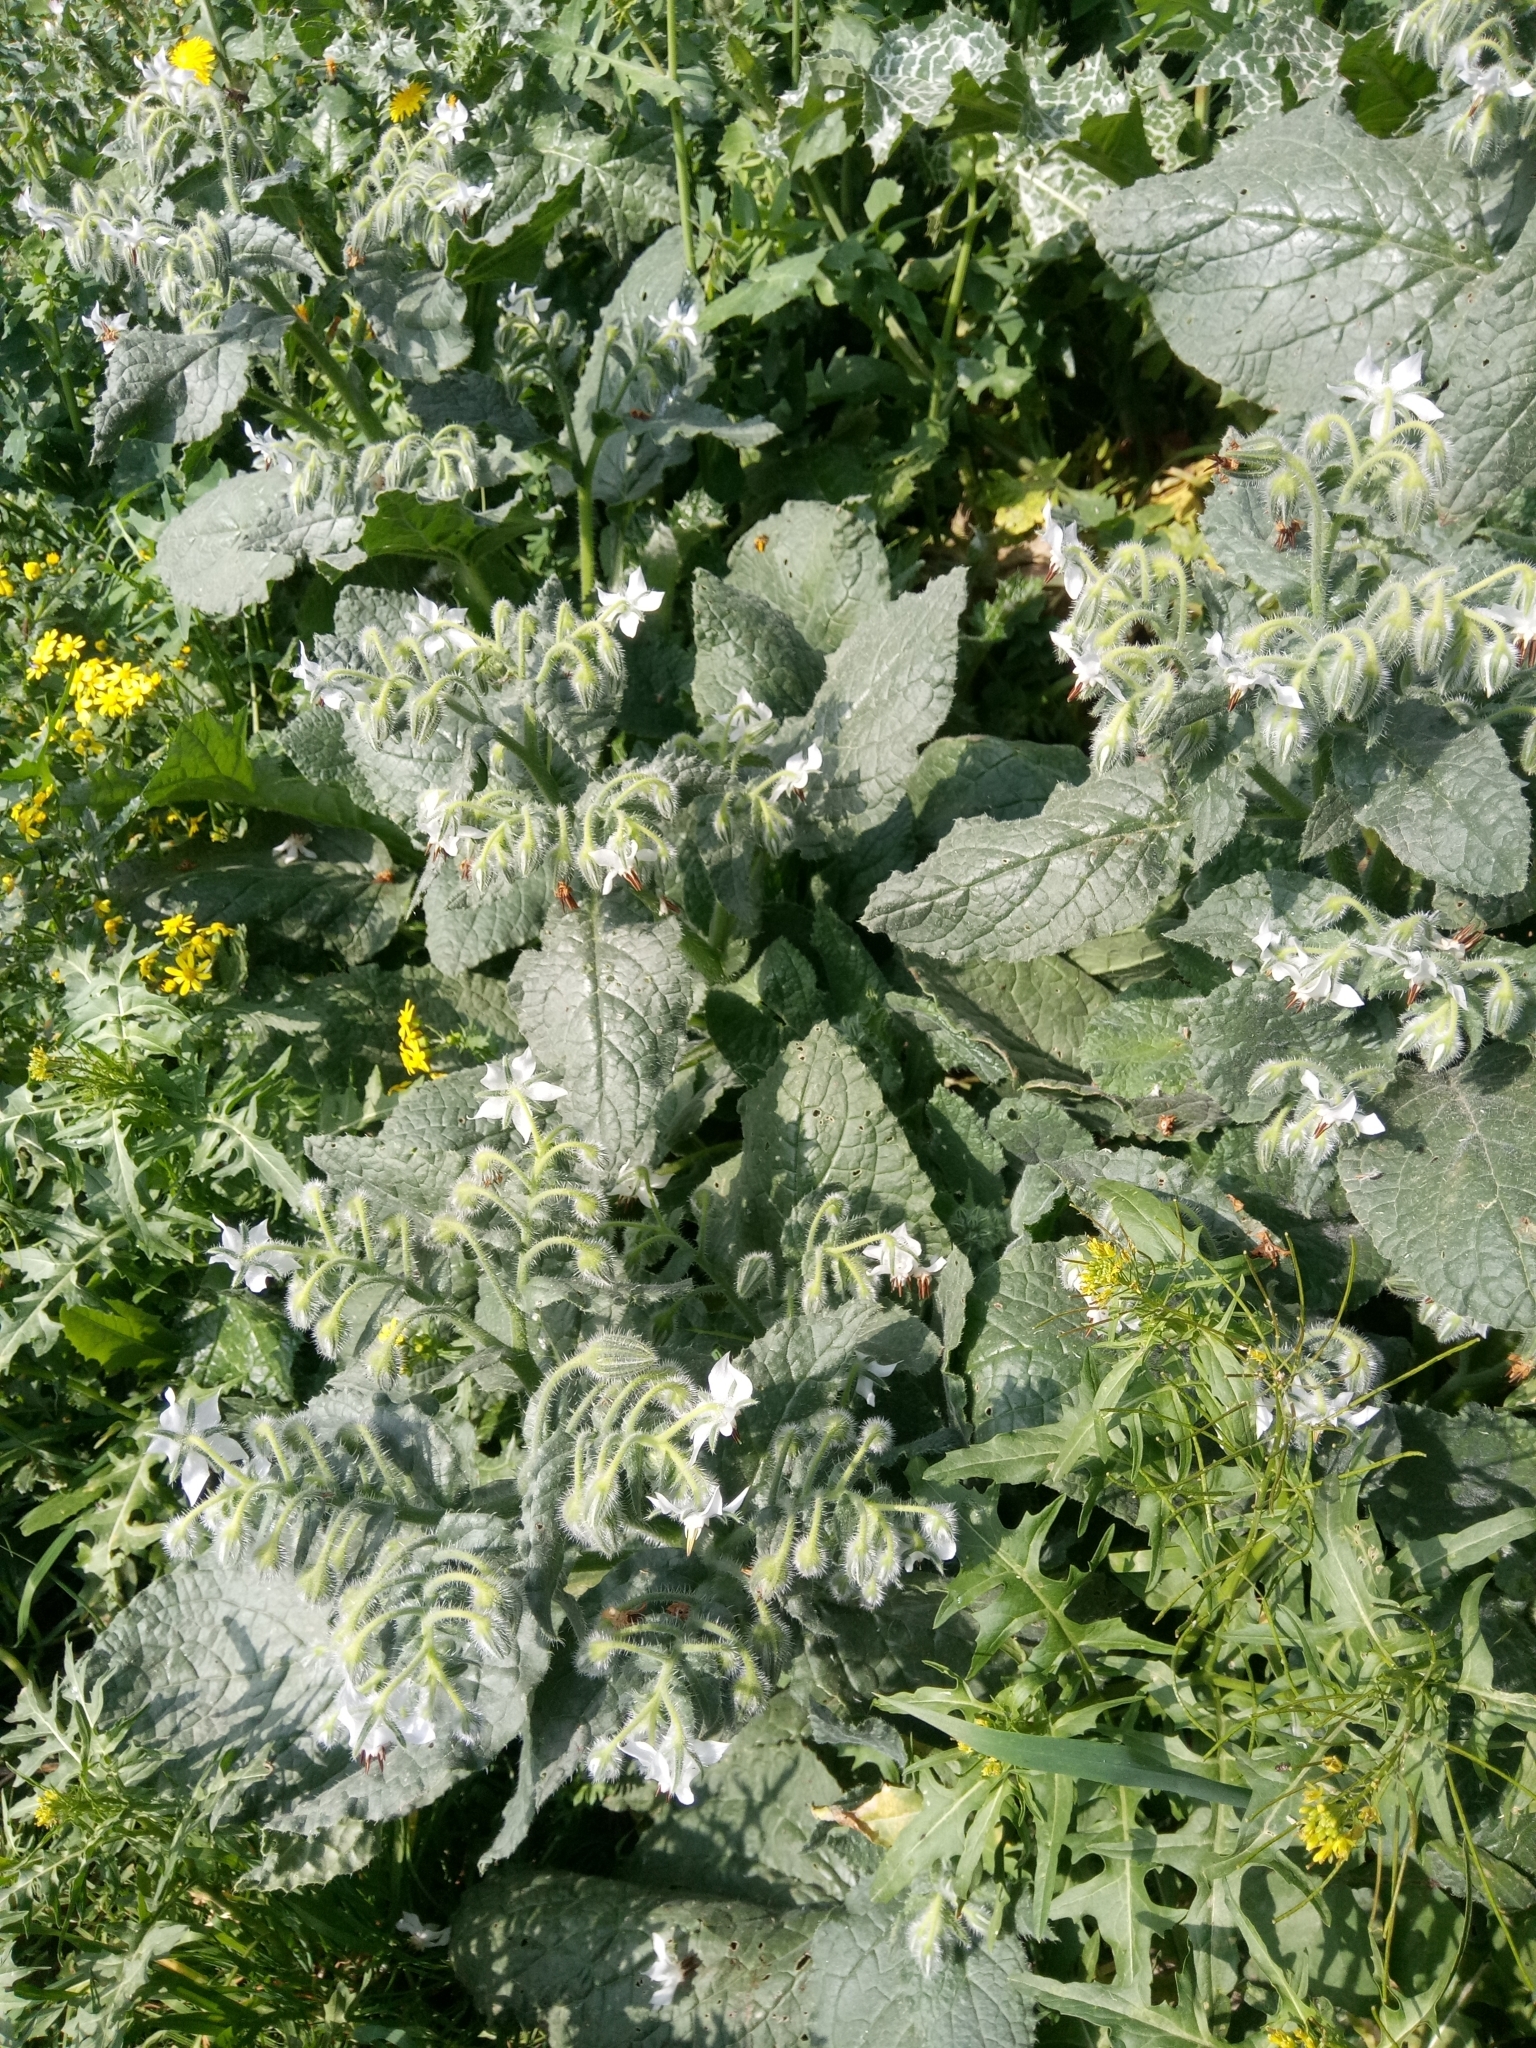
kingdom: Plantae
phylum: Tracheophyta
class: Magnoliopsida
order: Boraginales
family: Boraginaceae
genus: Borago
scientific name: Borago officinalis
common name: Borage
